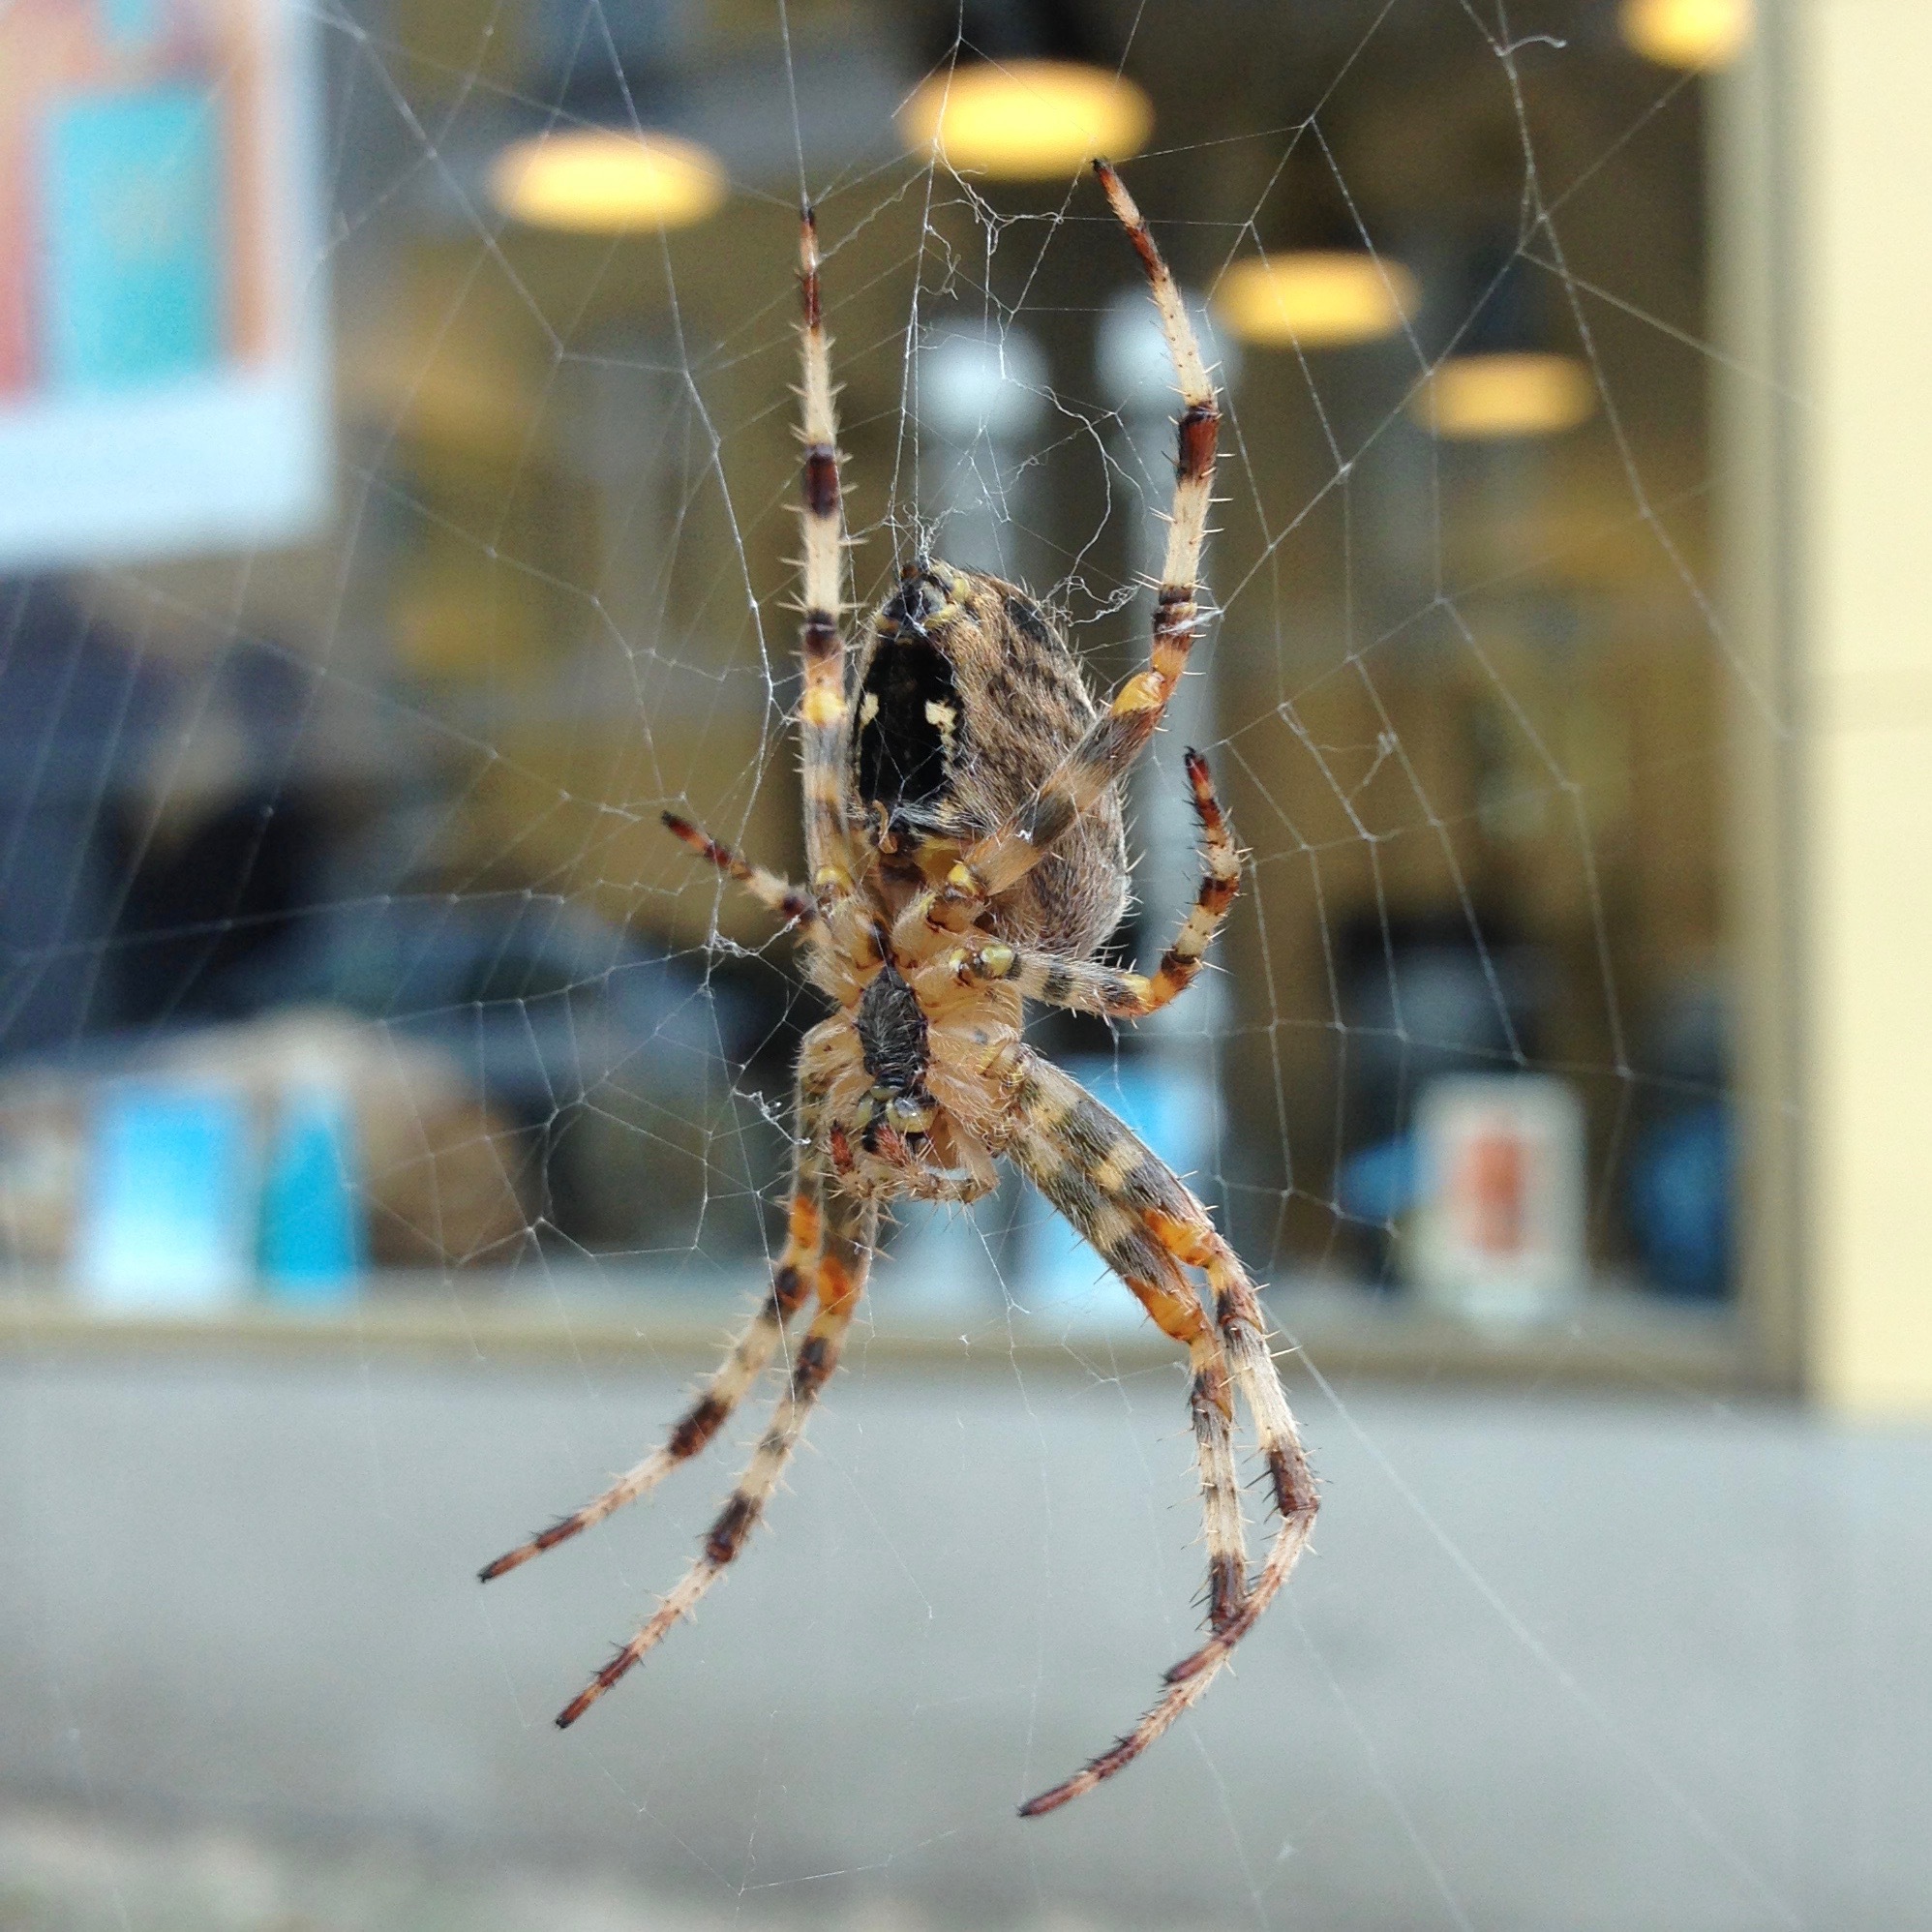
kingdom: Animalia
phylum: Arthropoda
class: Arachnida
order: Araneae
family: Araneidae
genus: Araneus
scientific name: Araneus diadematus
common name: Cross orbweaver
